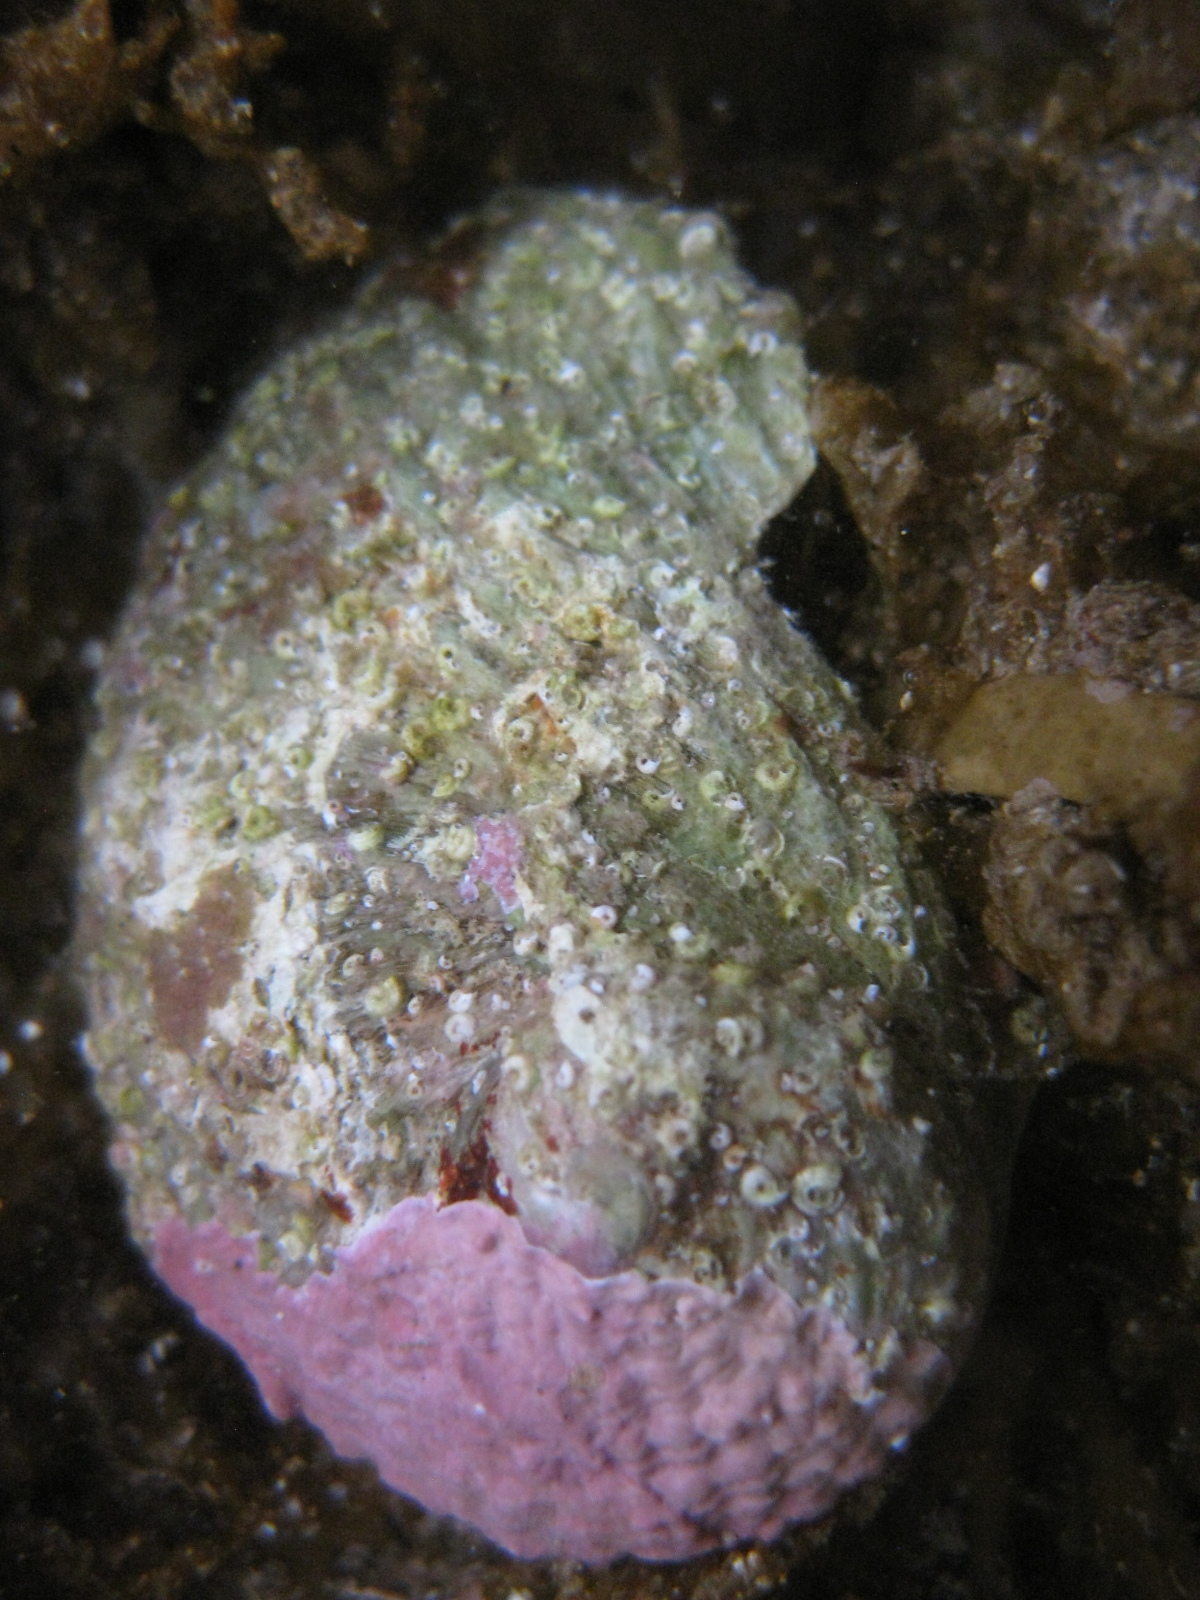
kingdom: Animalia
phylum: Mollusca
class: Gastropoda
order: Lepetellida
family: Haliotidae
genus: Haliotis
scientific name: Haliotis australis
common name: Silver abalone
